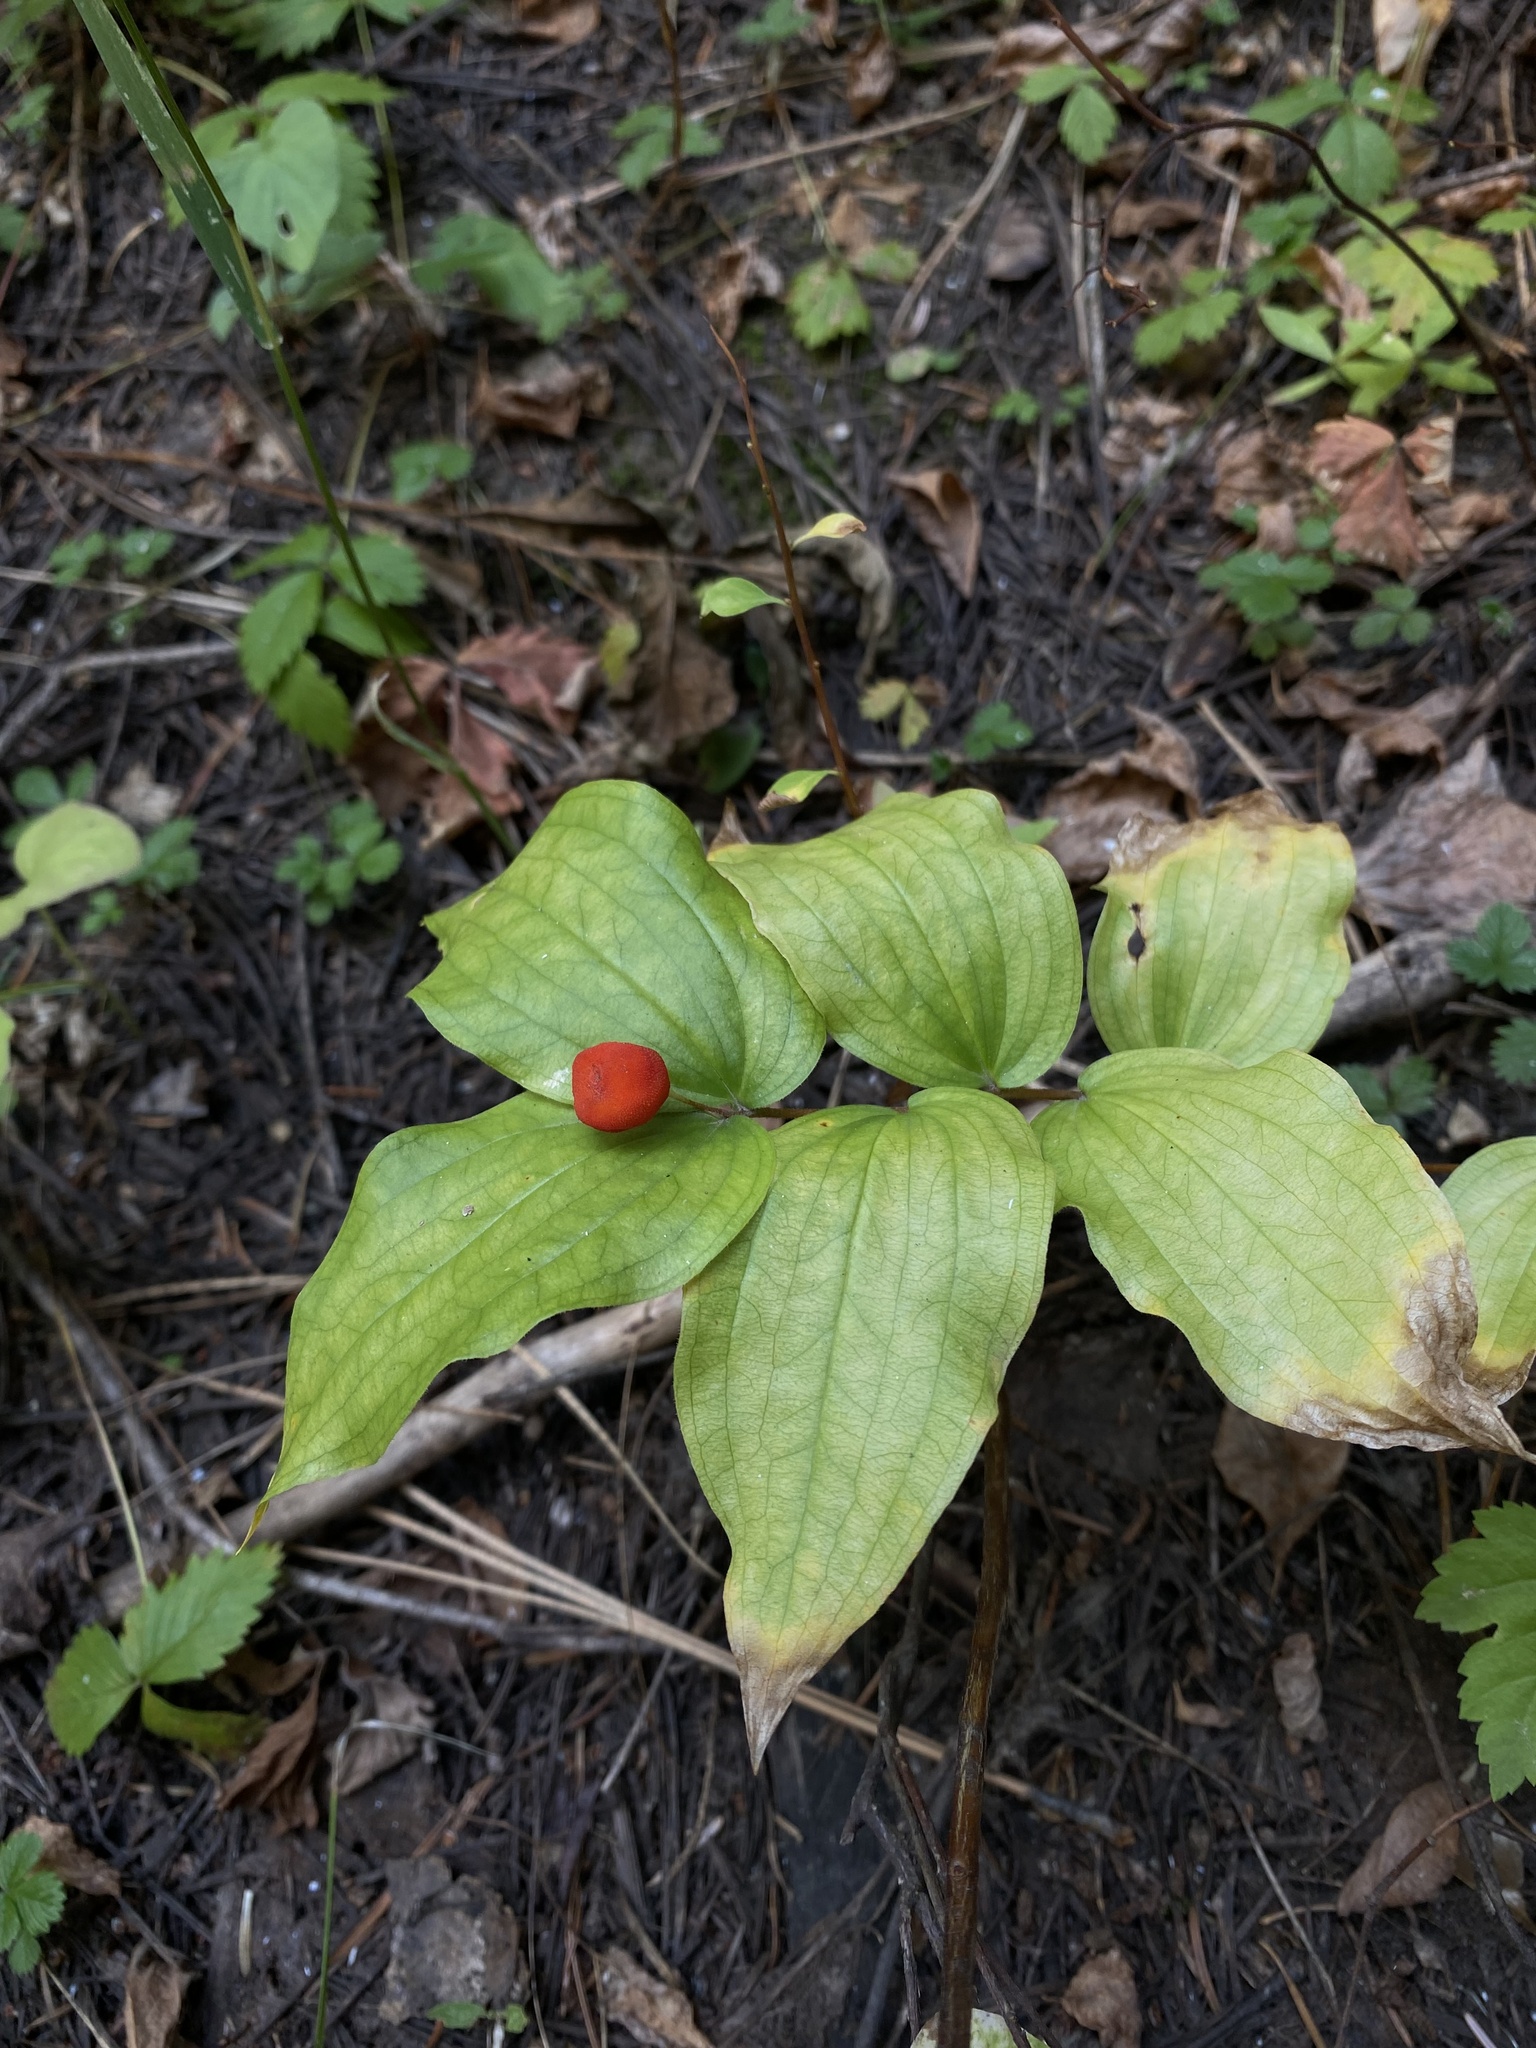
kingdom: Plantae
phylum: Tracheophyta
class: Liliopsida
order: Liliales
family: Liliaceae
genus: Prosartes
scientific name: Prosartes trachycarpa
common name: Rough-fruit fairy-bells
